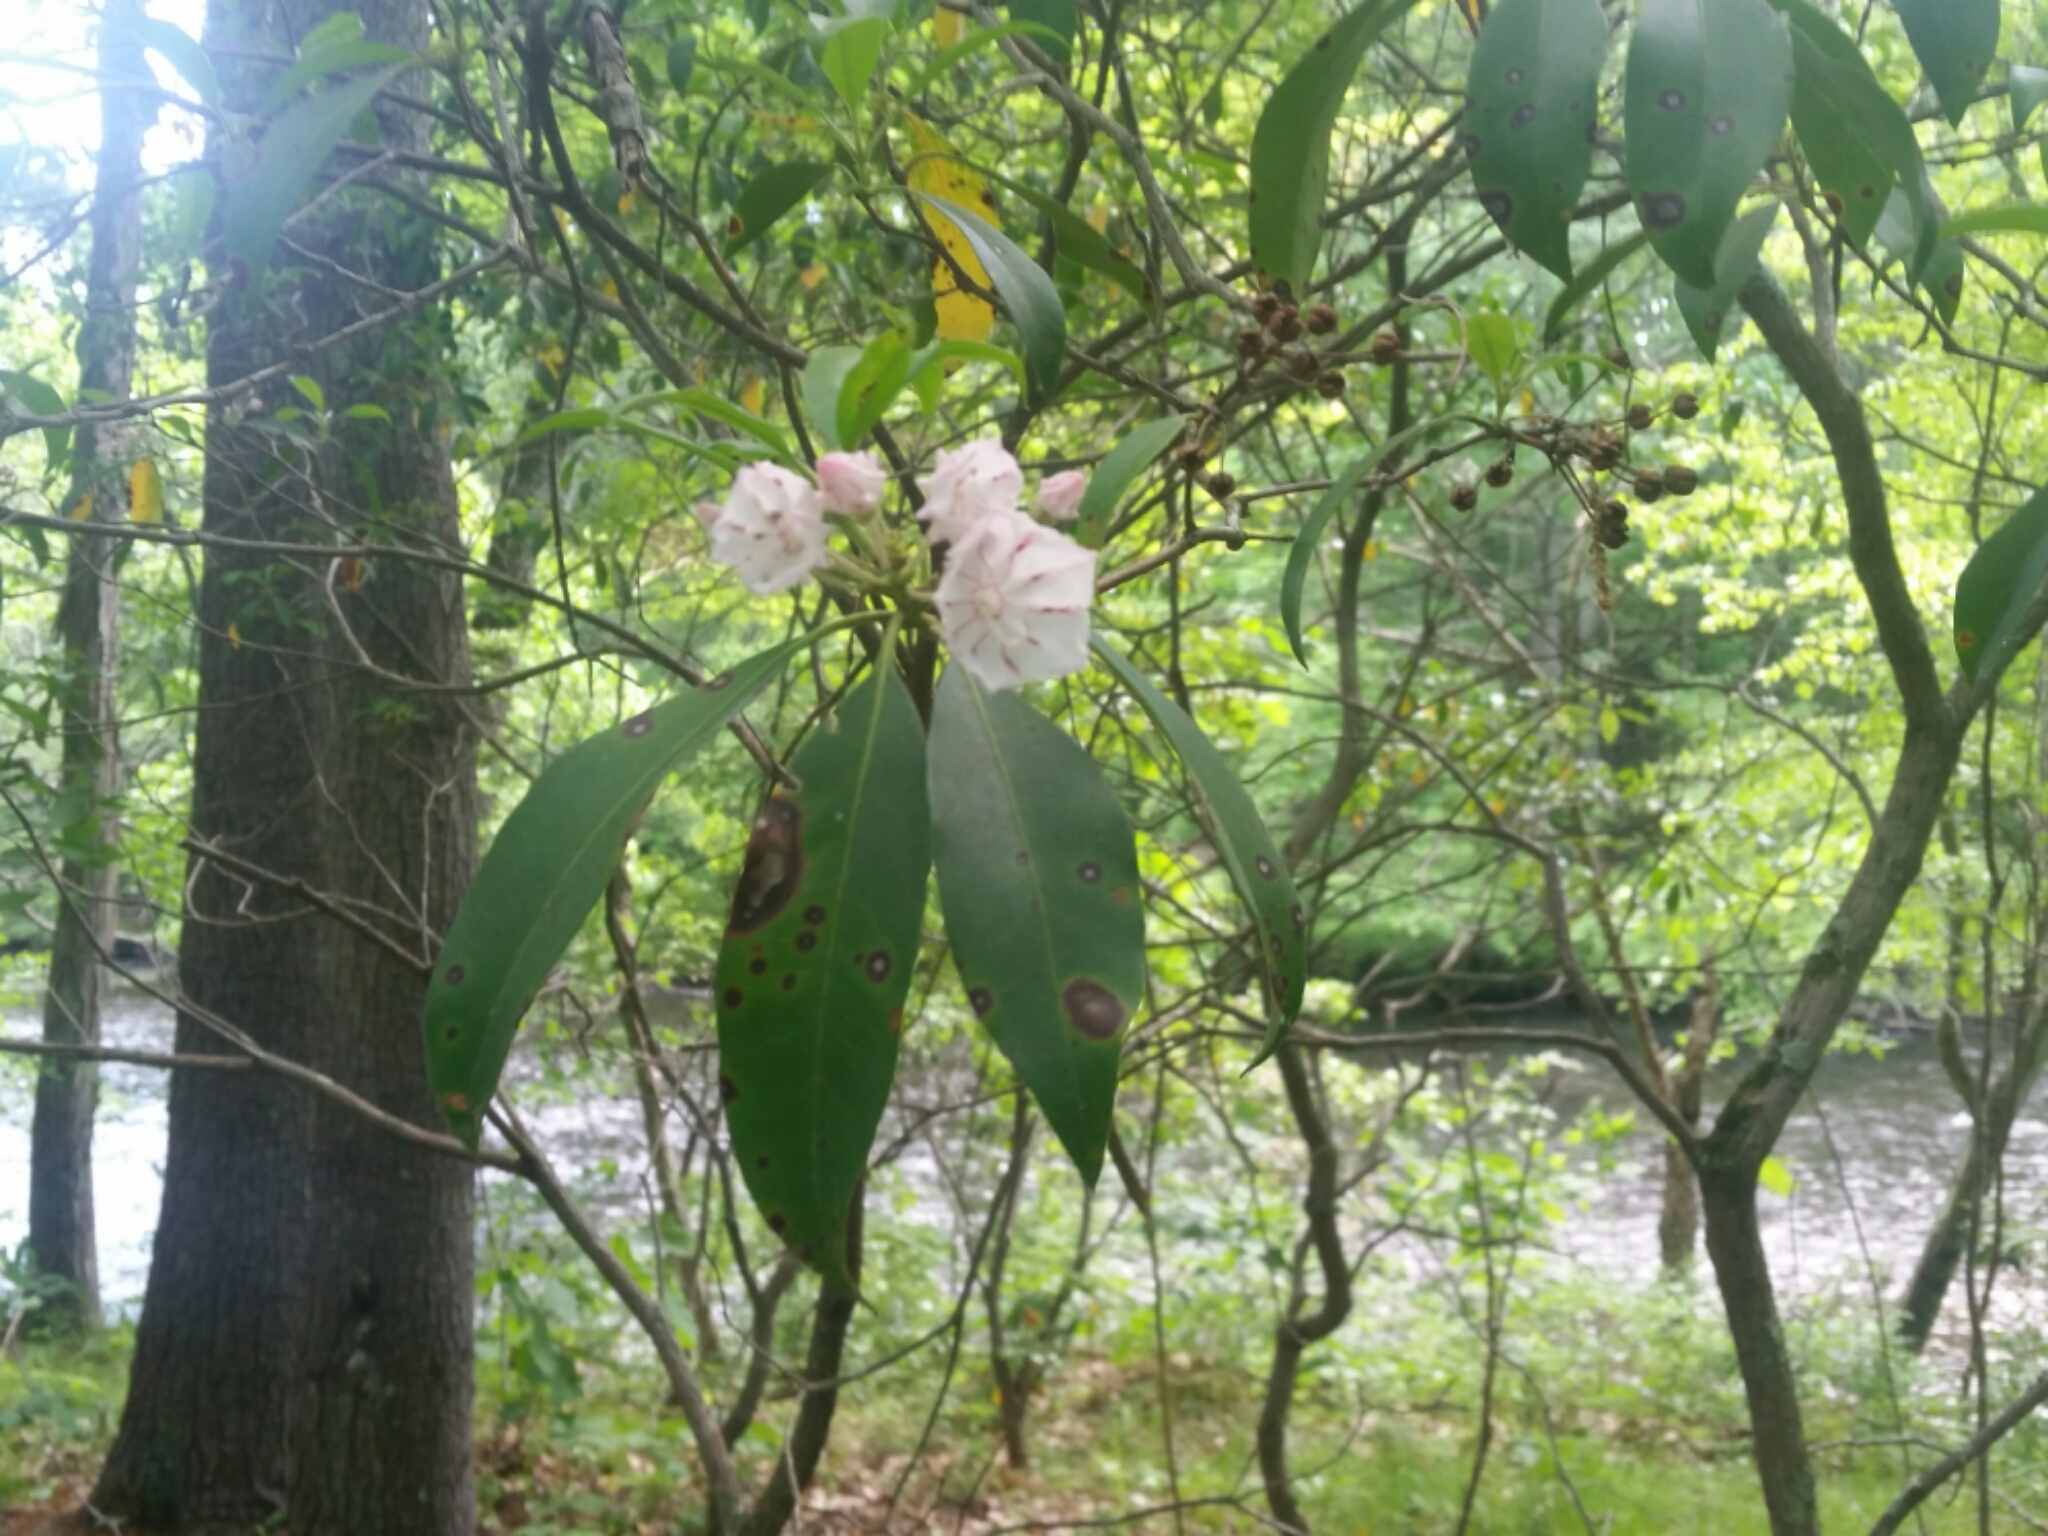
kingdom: Plantae
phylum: Tracheophyta
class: Magnoliopsida
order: Ericales
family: Ericaceae
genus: Kalmia
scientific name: Kalmia latifolia
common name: Mountain-laurel
